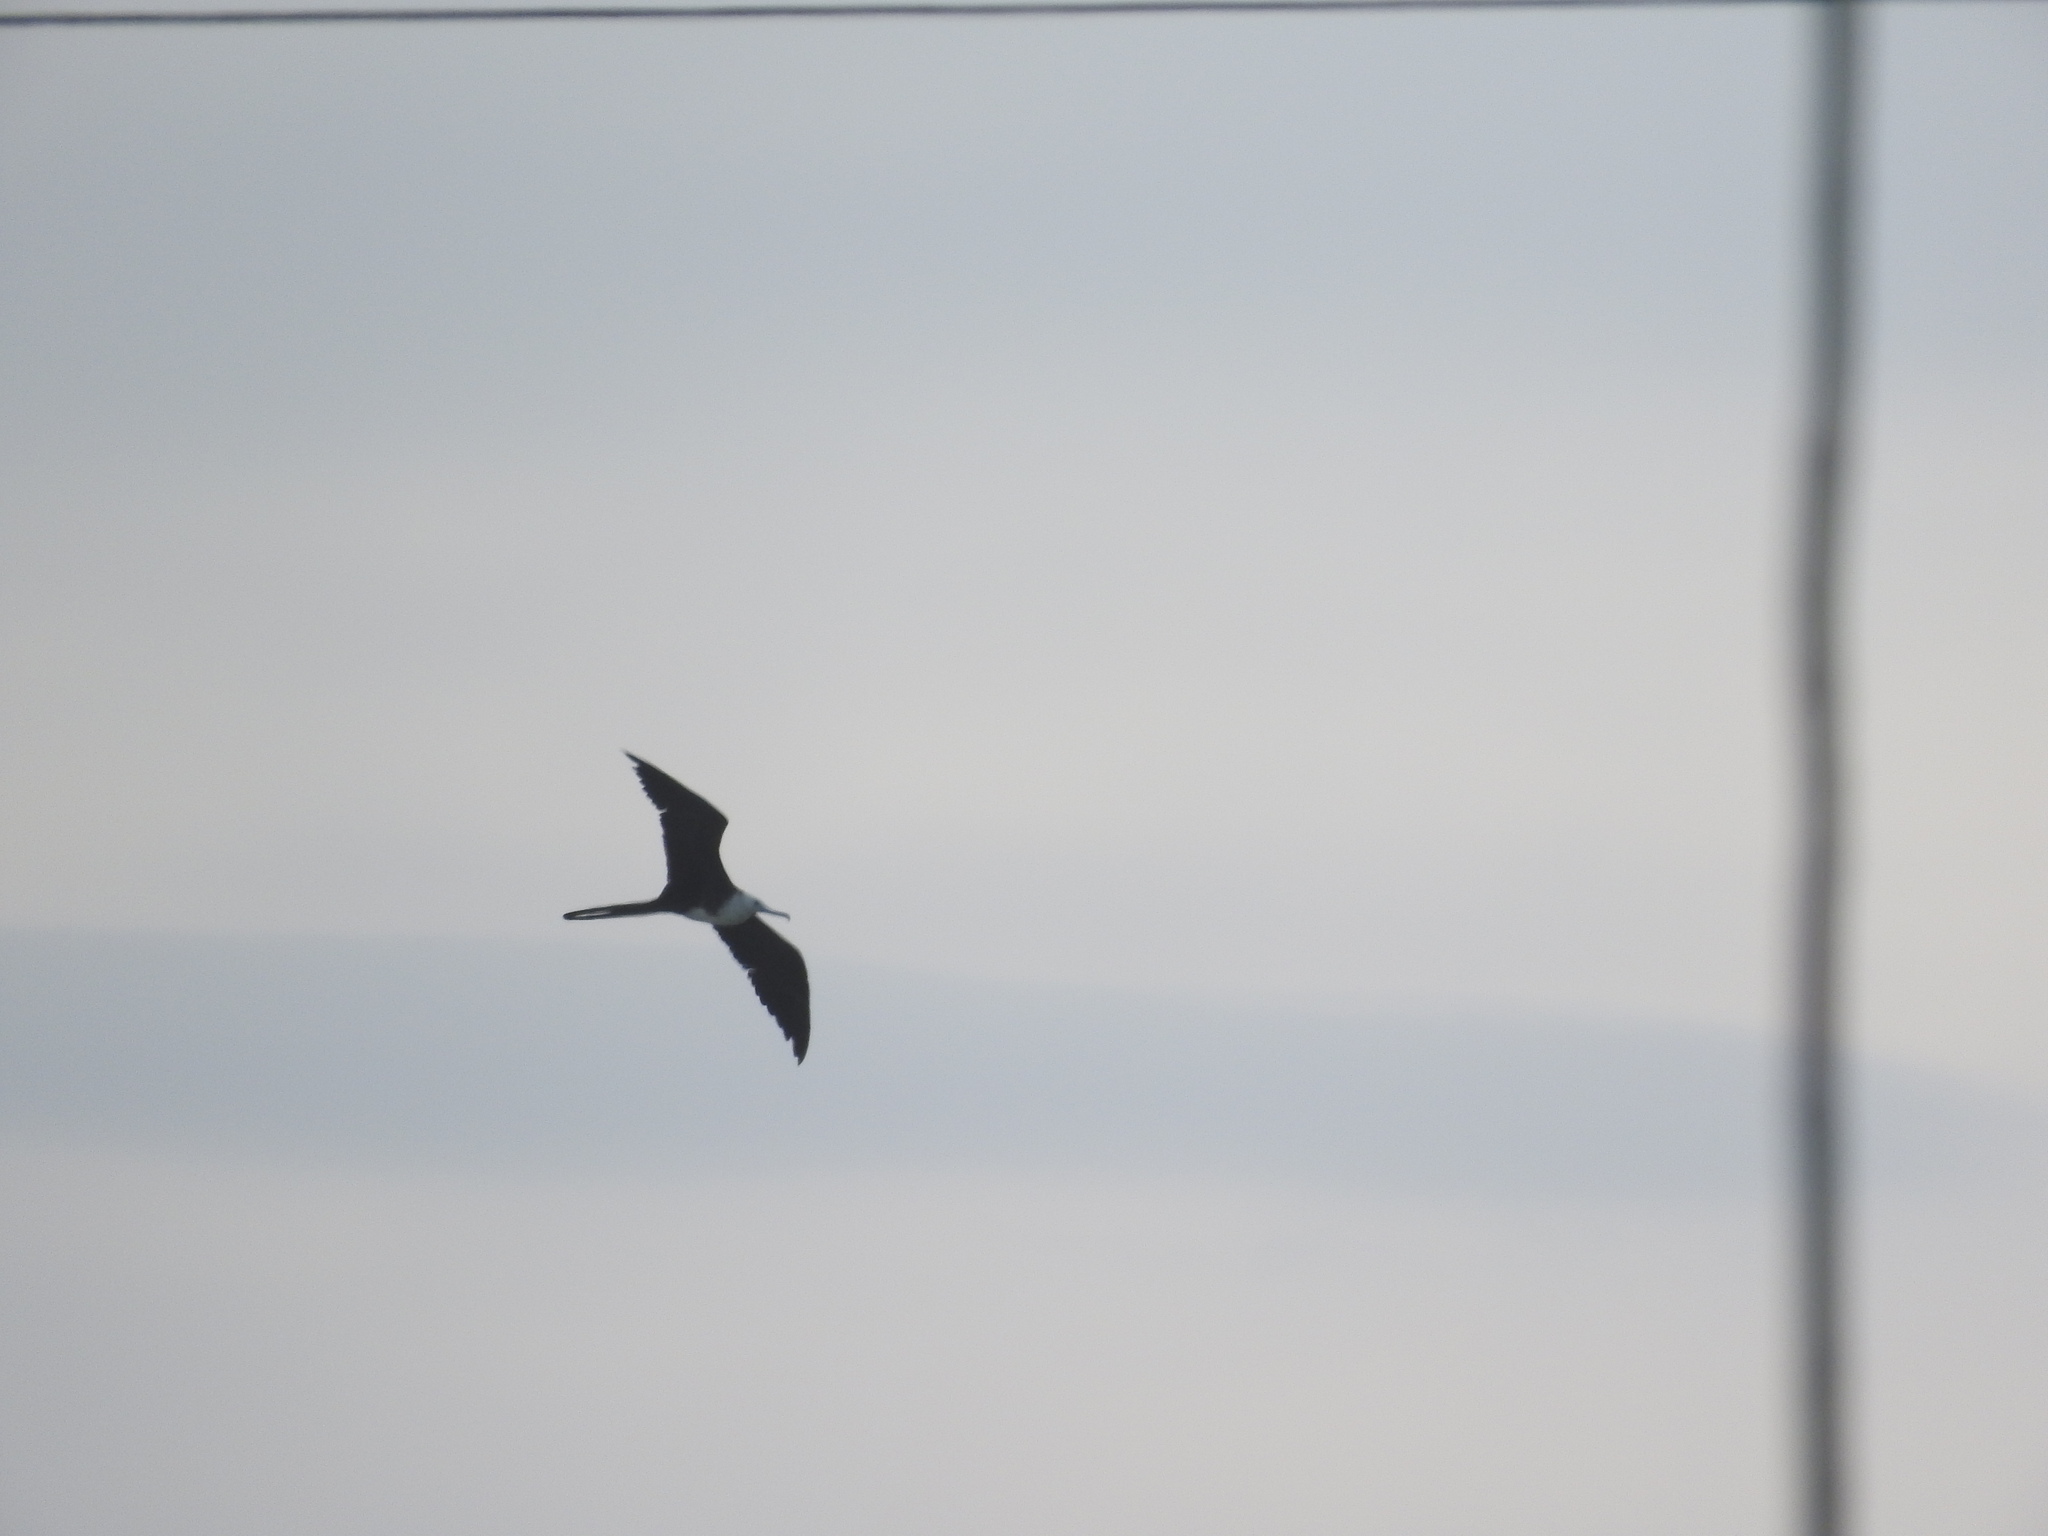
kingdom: Animalia
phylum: Chordata
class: Aves
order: Suliformes
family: Fregatidae
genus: Fregata
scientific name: Fregata magnificens
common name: Magnificent frigatebird
